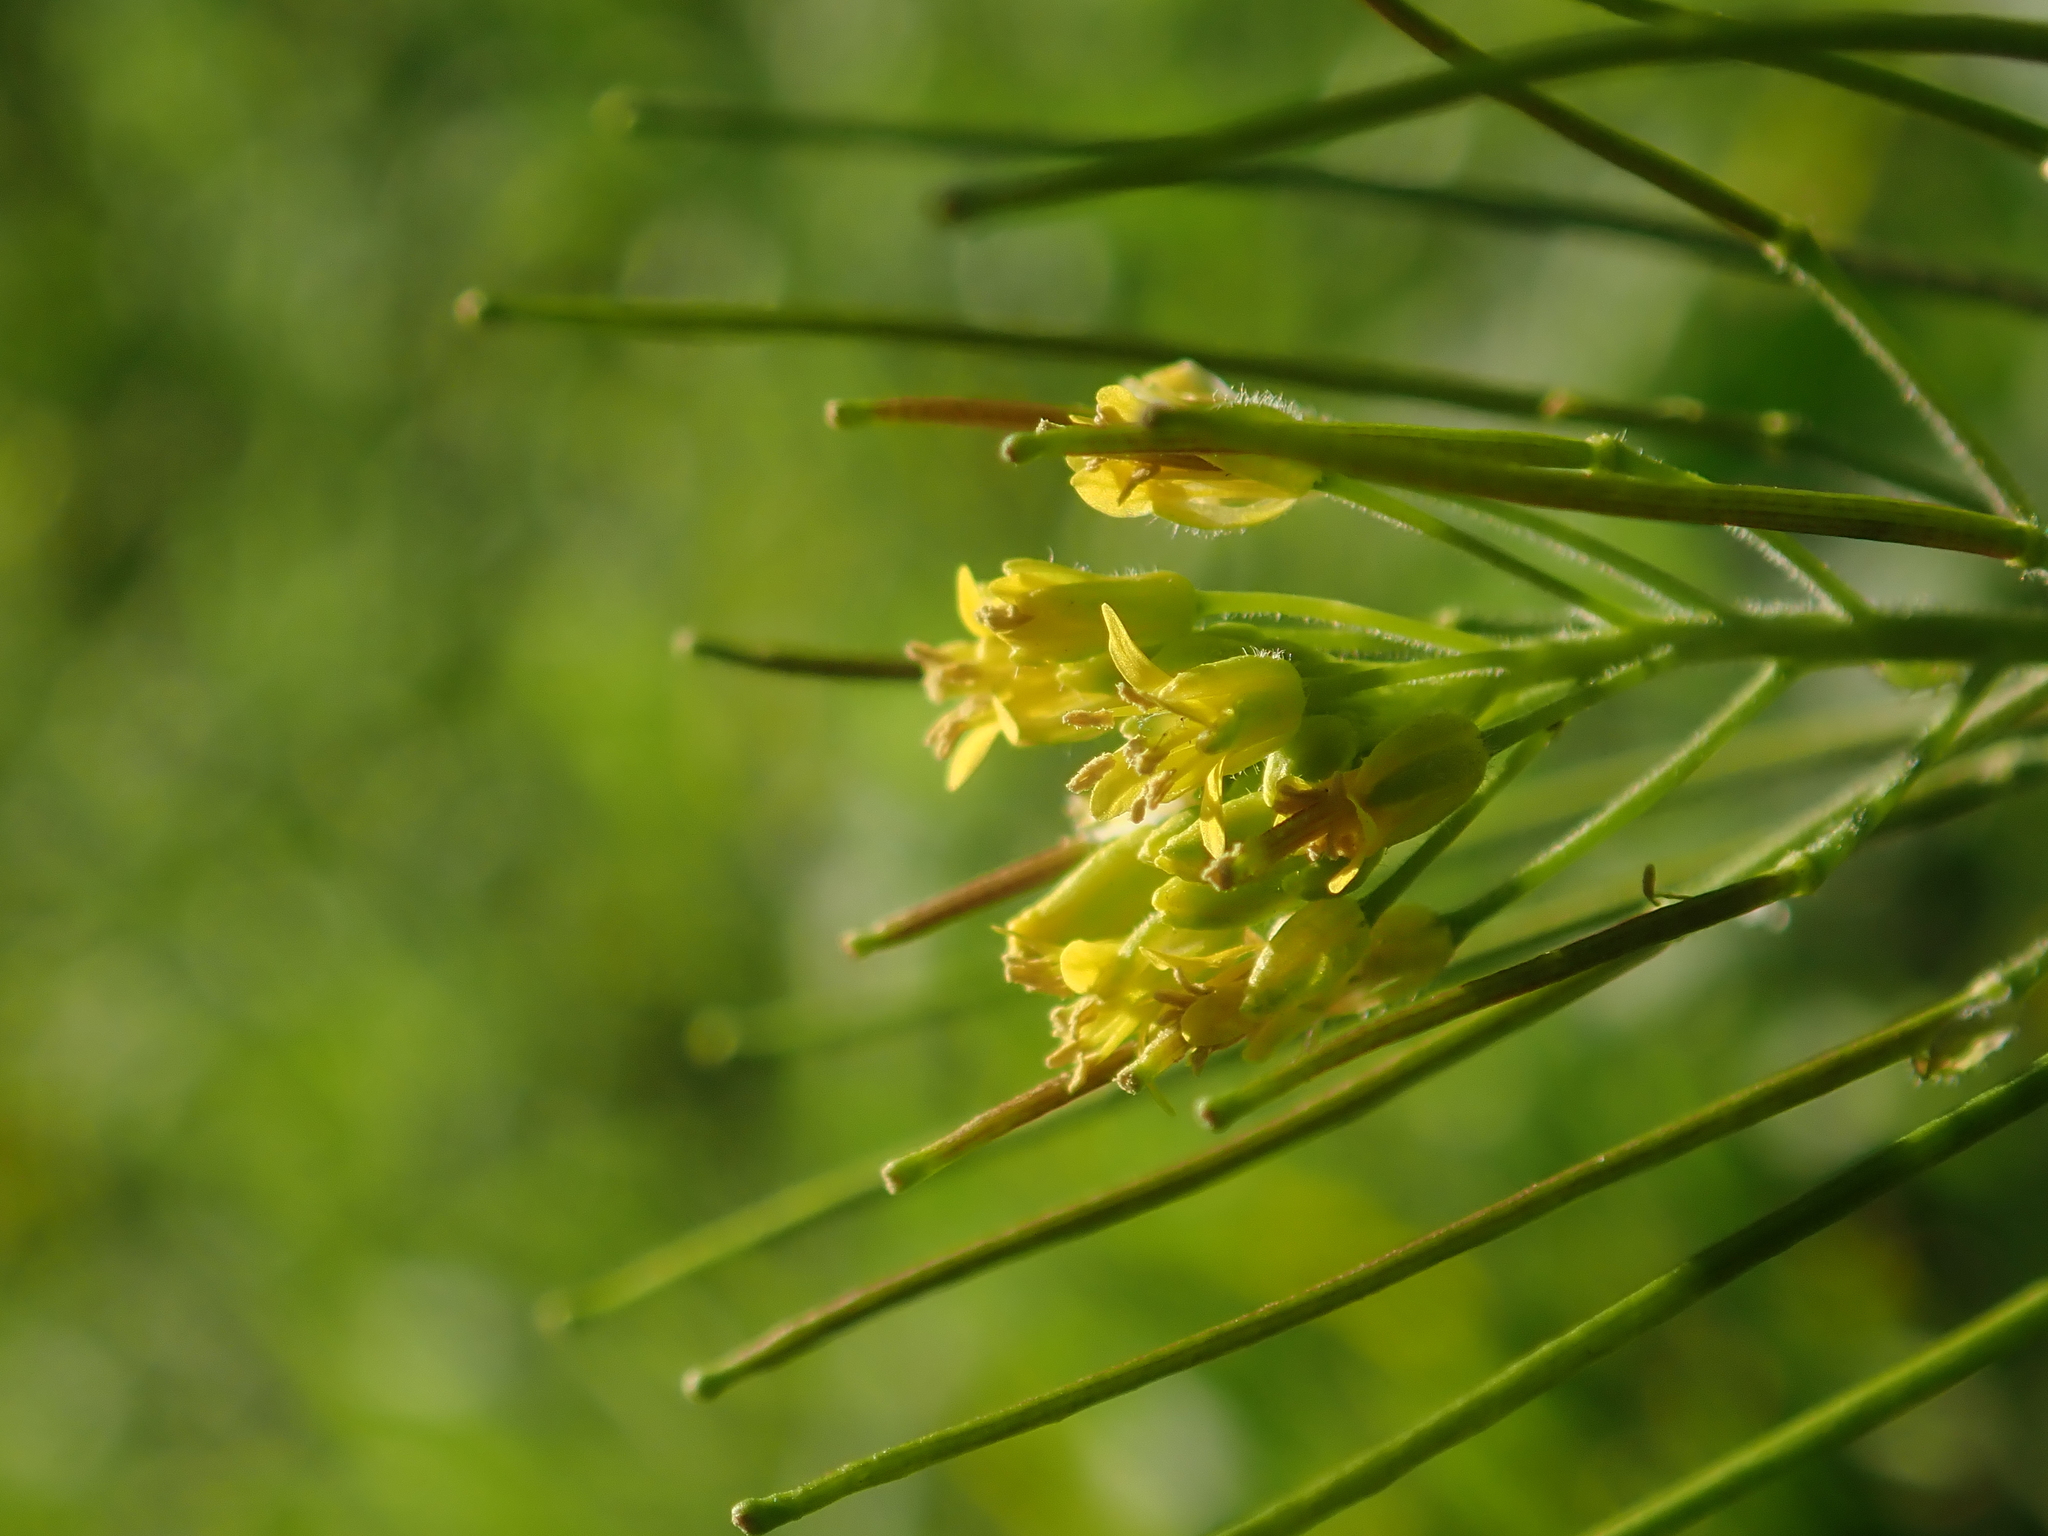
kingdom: Plantae
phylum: Tracheophyta
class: Magnoliopsida
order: Brassicales
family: Brassicaceae
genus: Sisymbrium
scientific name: Sisymbrium irio
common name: London rocket
